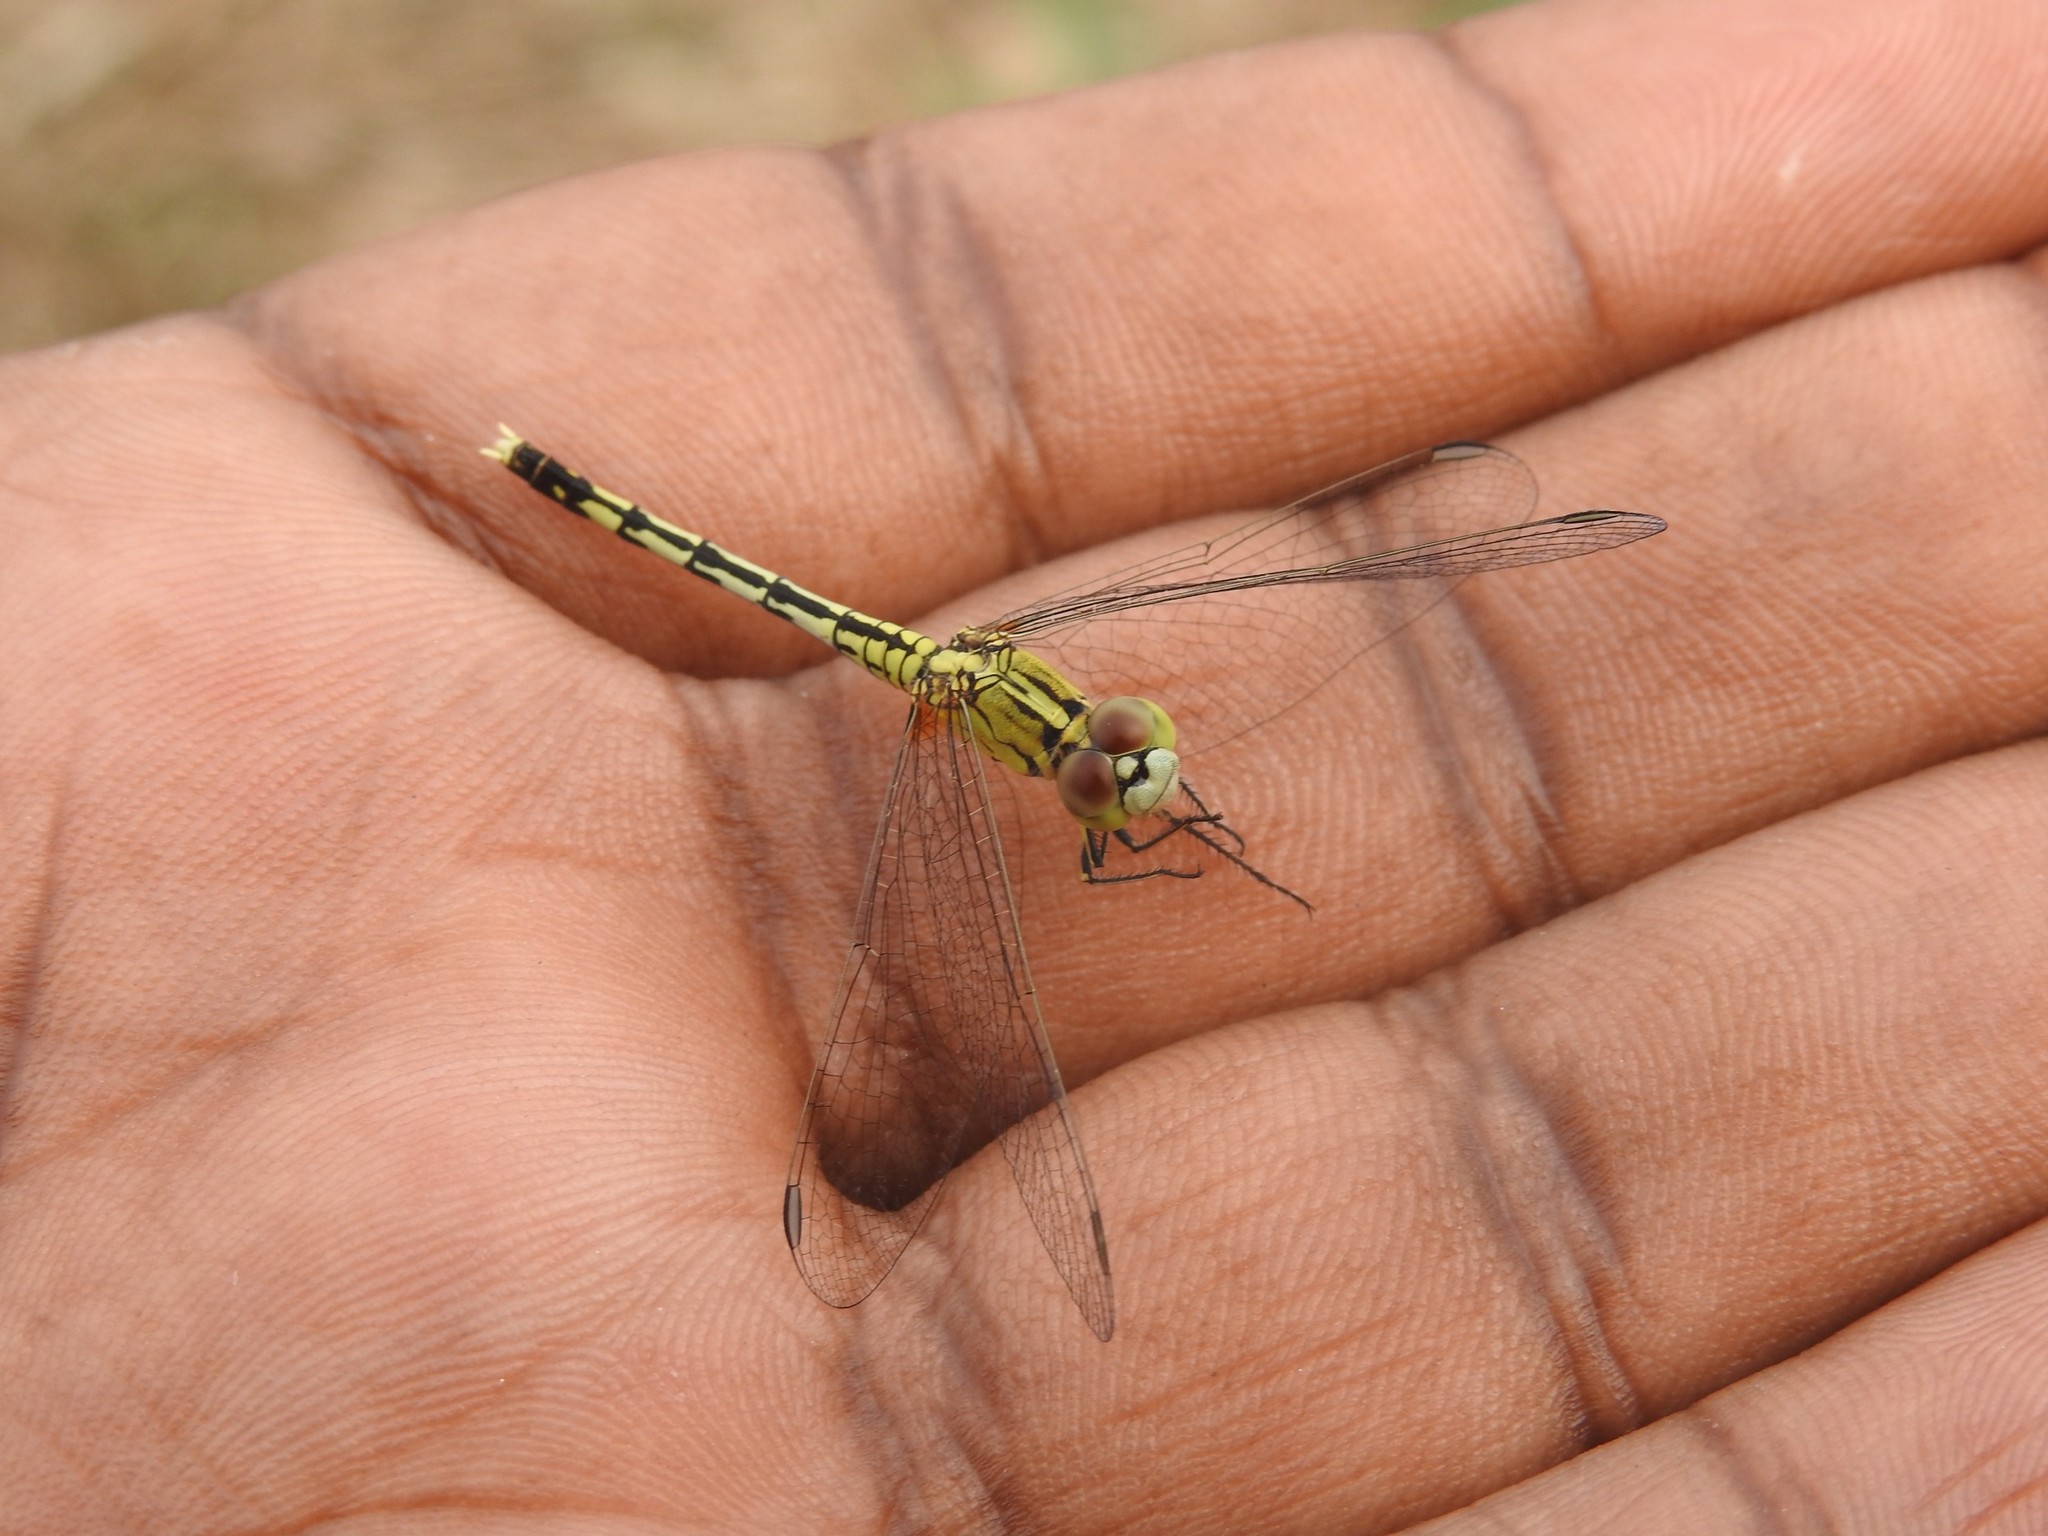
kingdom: Animalia
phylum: Arthropoda
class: Insecta
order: Odonata
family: Libellulidae
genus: Diplacodes
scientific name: Diplacodes trivialis
